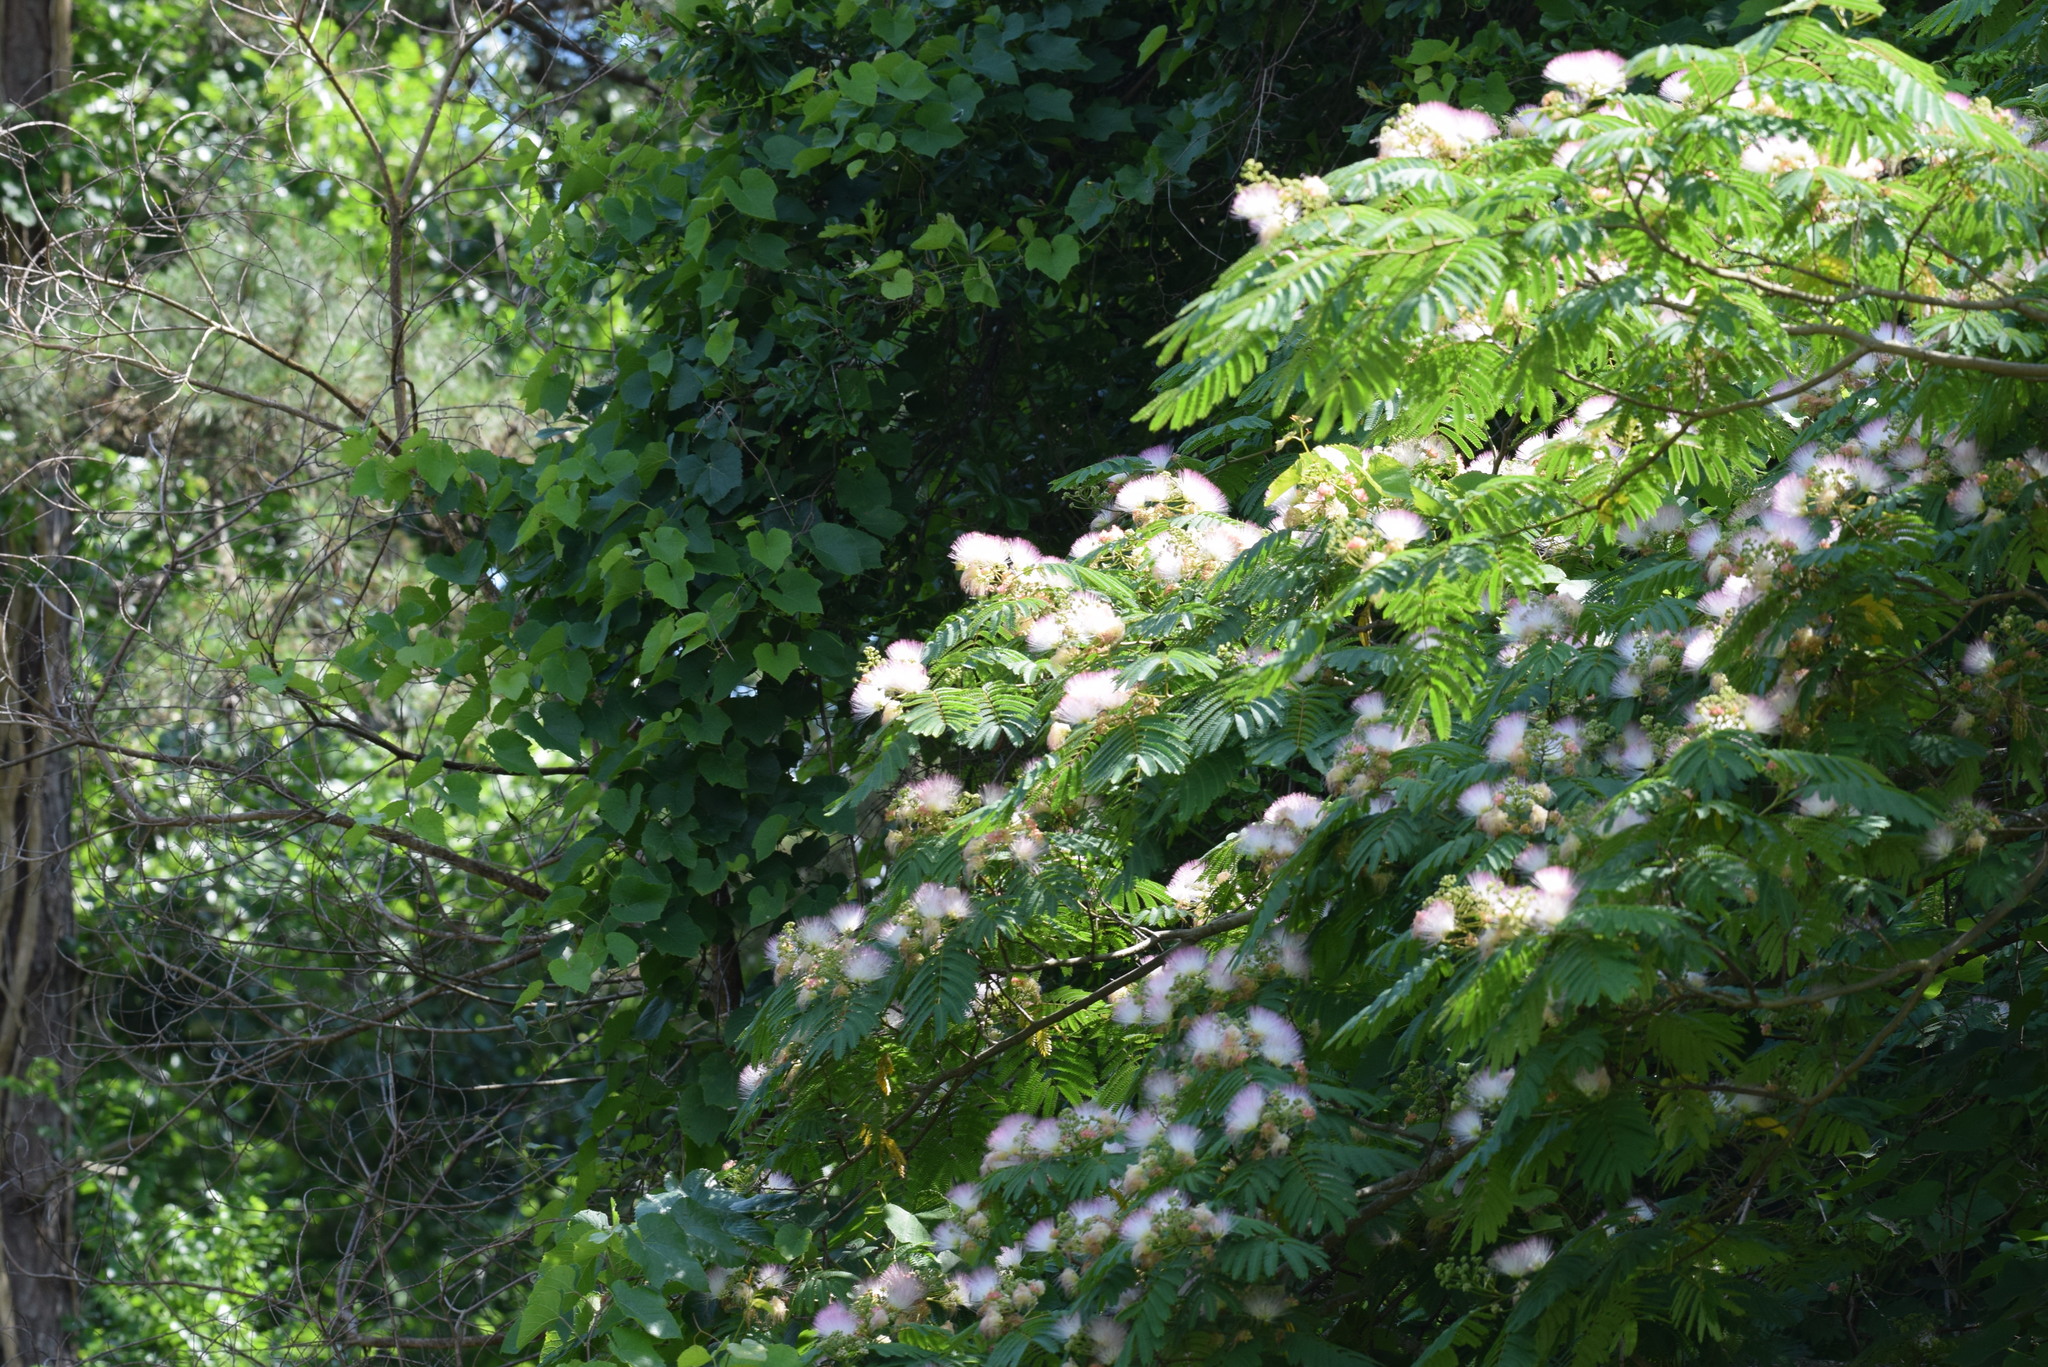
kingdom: Plantae
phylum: Tracheophyta
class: Magnoliopsida
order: Fabales
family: Fabaceae
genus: Albizia
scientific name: Albizia julibrissin
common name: Silktree
